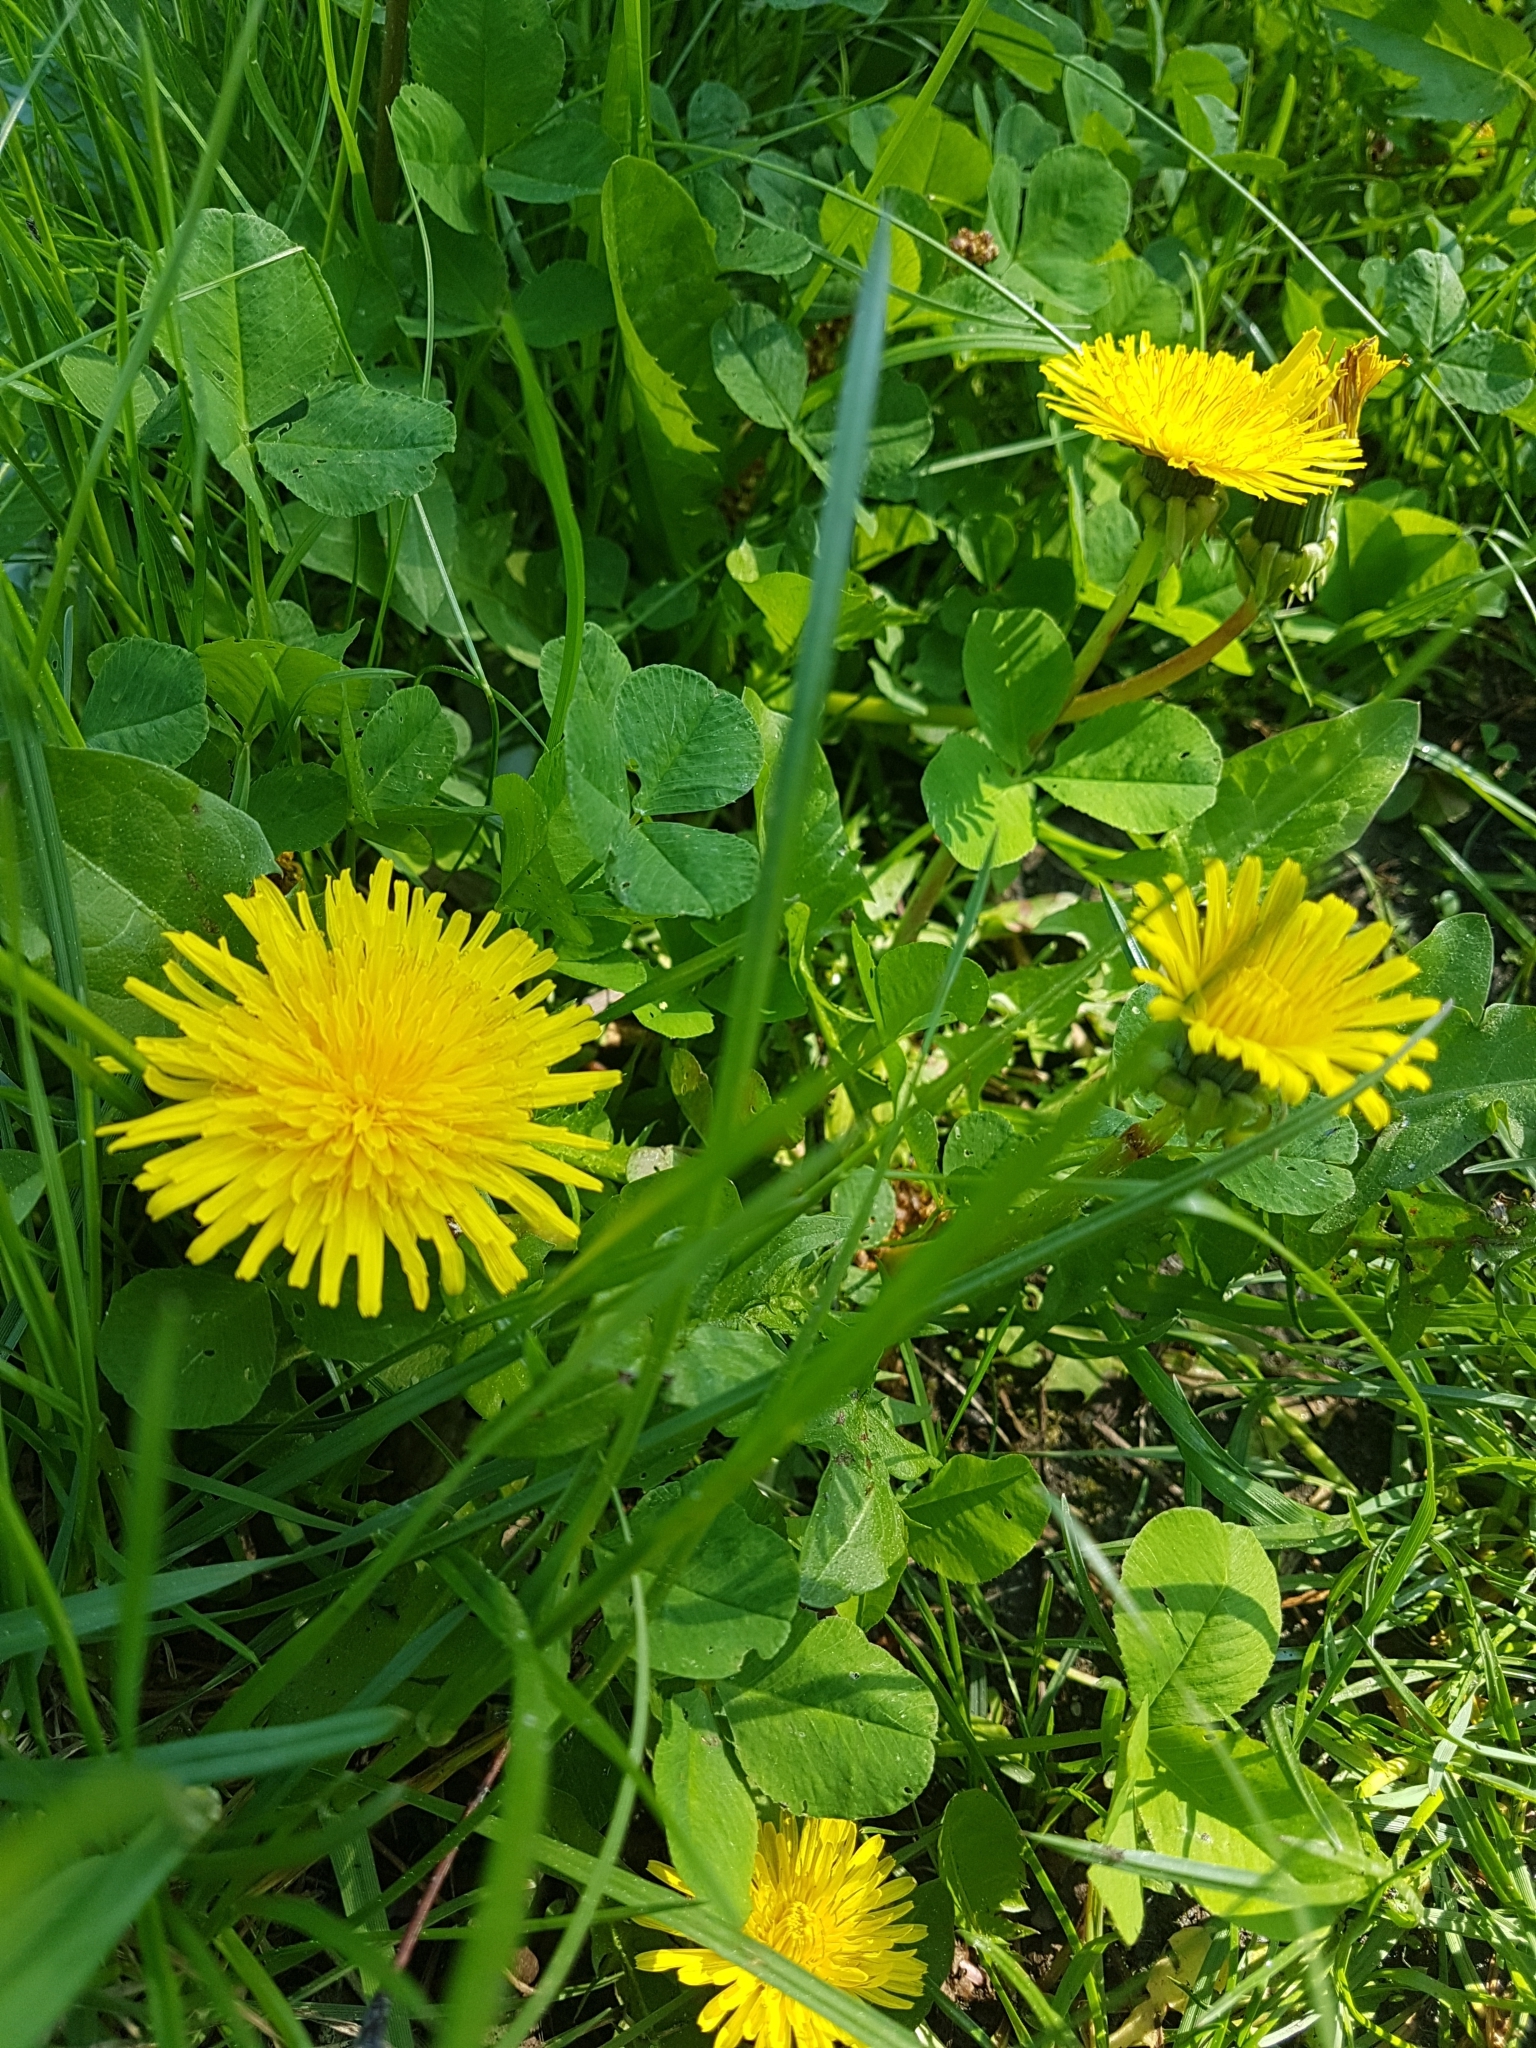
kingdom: Plantae
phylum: Tracheophyta
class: Magnoliopsida
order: Asterales
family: Asteraceae
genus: Taraxacum
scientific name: Taraxacum
